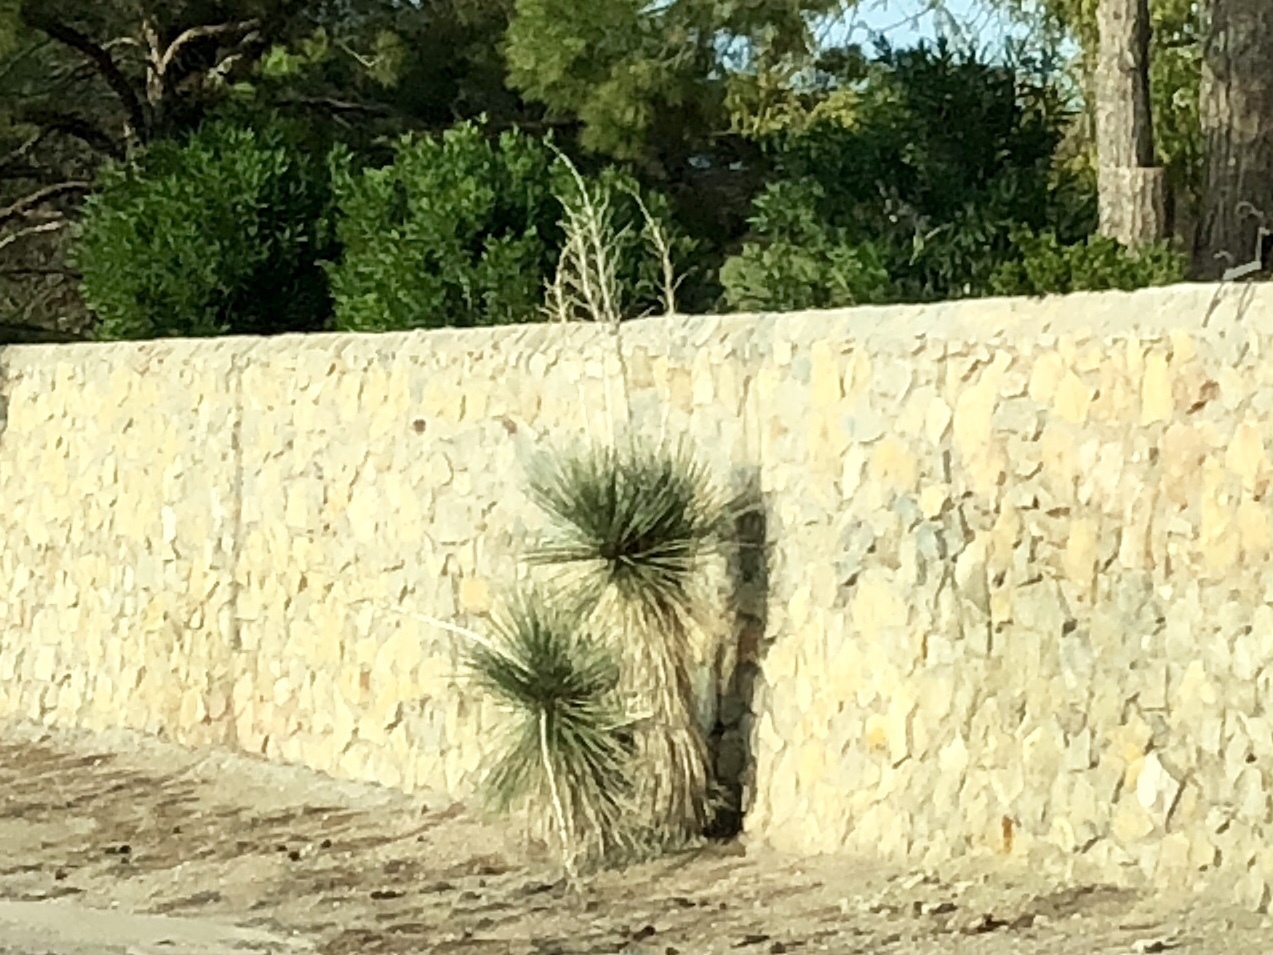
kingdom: Plantae
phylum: Tracheophyta
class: Liliopsida
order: Asparagales
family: Asparagaceae
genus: Yucca
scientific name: Yucca elata
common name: Palmella
